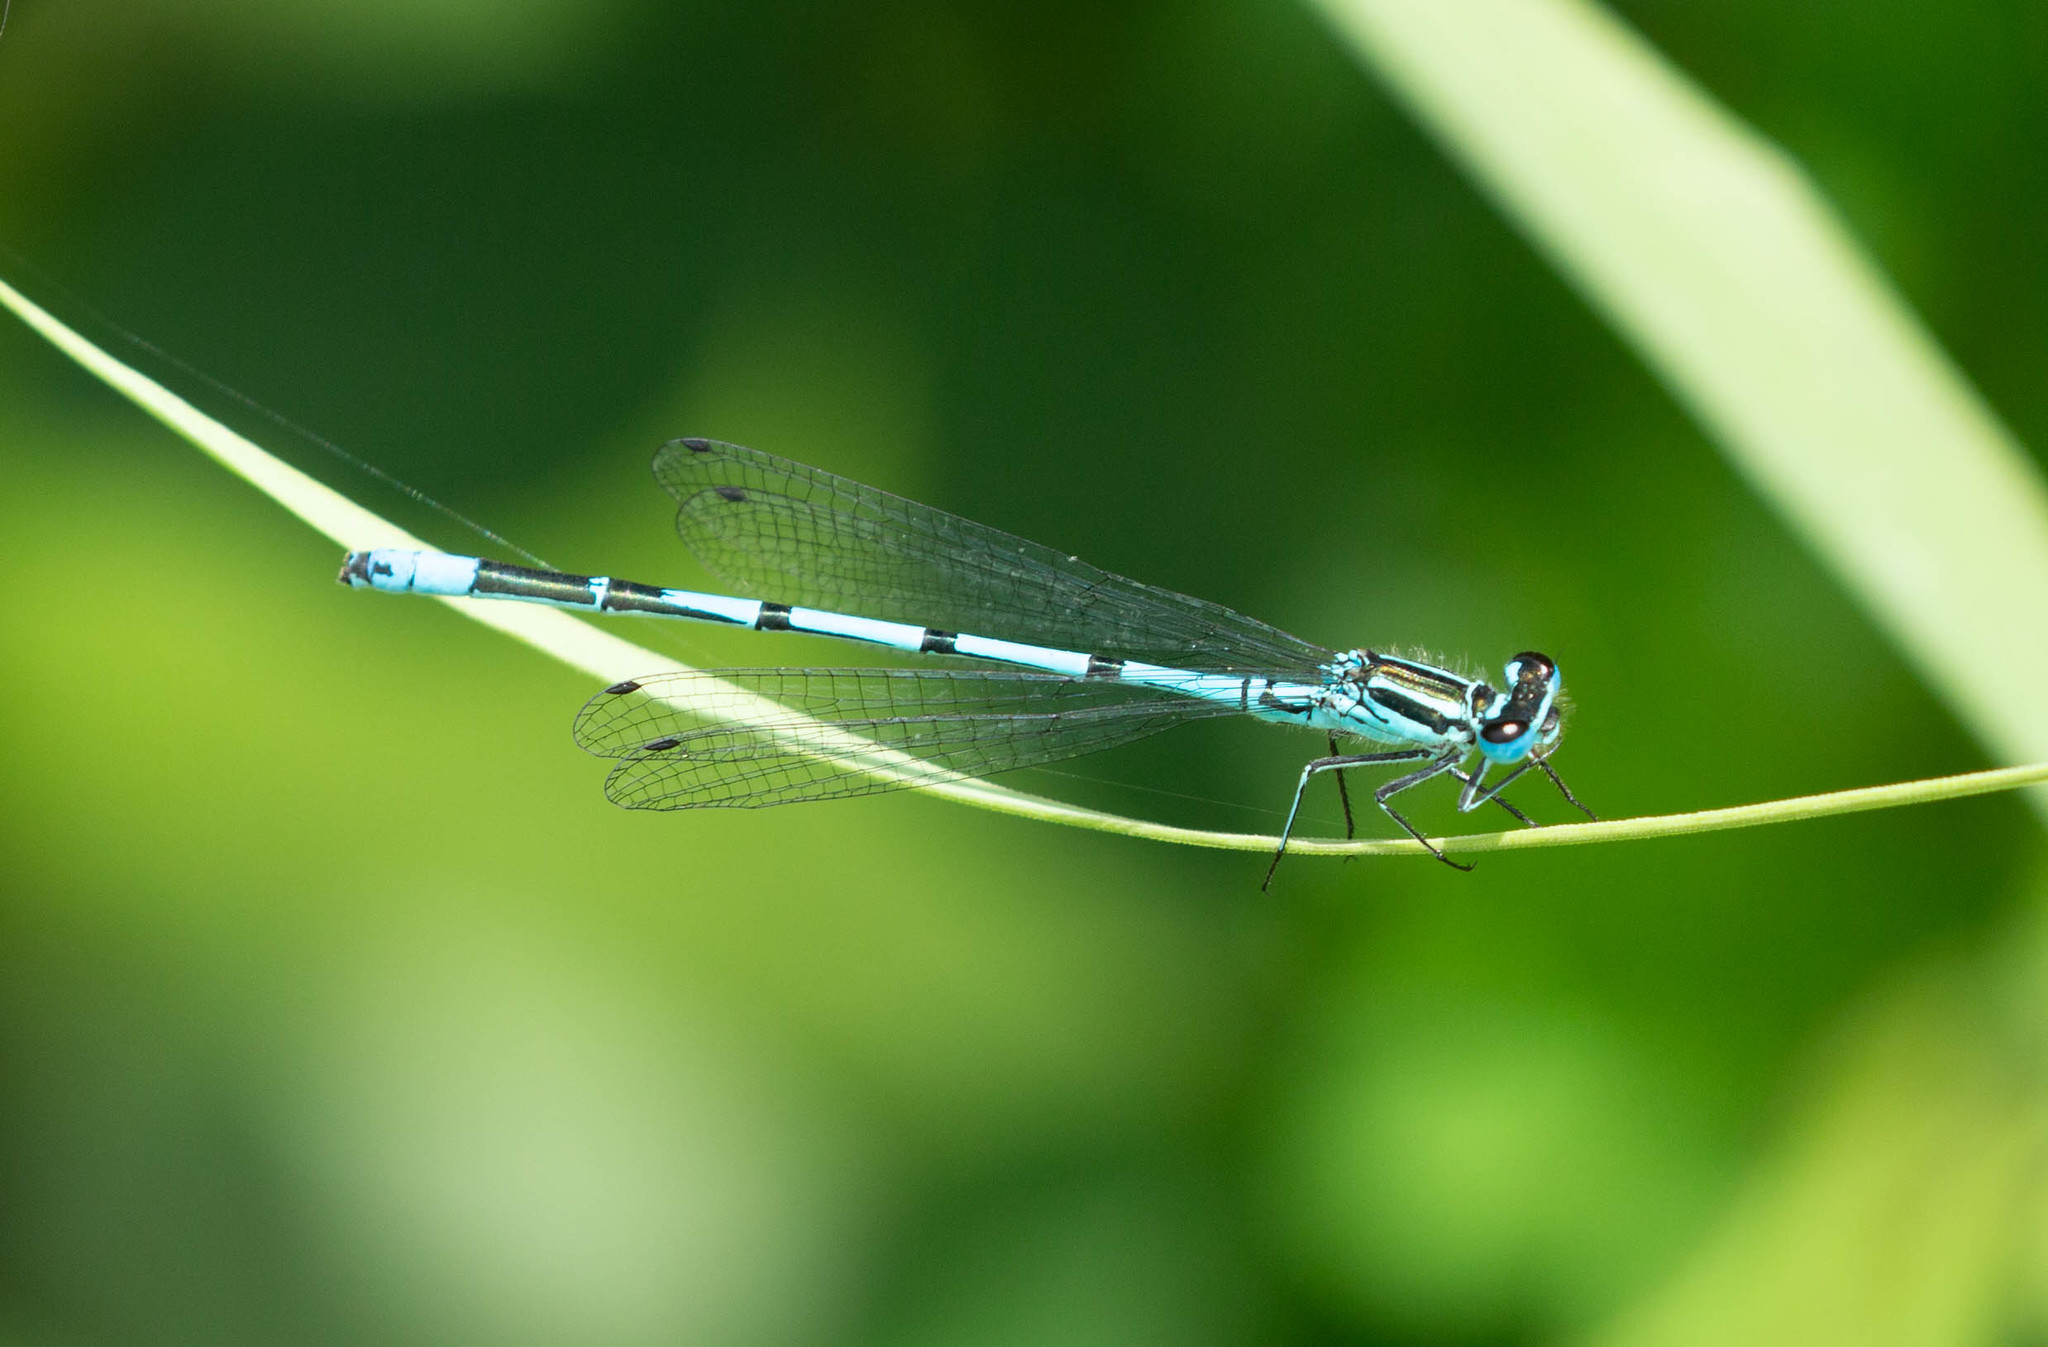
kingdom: Animalia
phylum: Arthropoda
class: Insecta
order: Odonata
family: Coenagrionidae
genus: Coenagrion
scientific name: Coenagrion puella
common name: Azure damselfly
